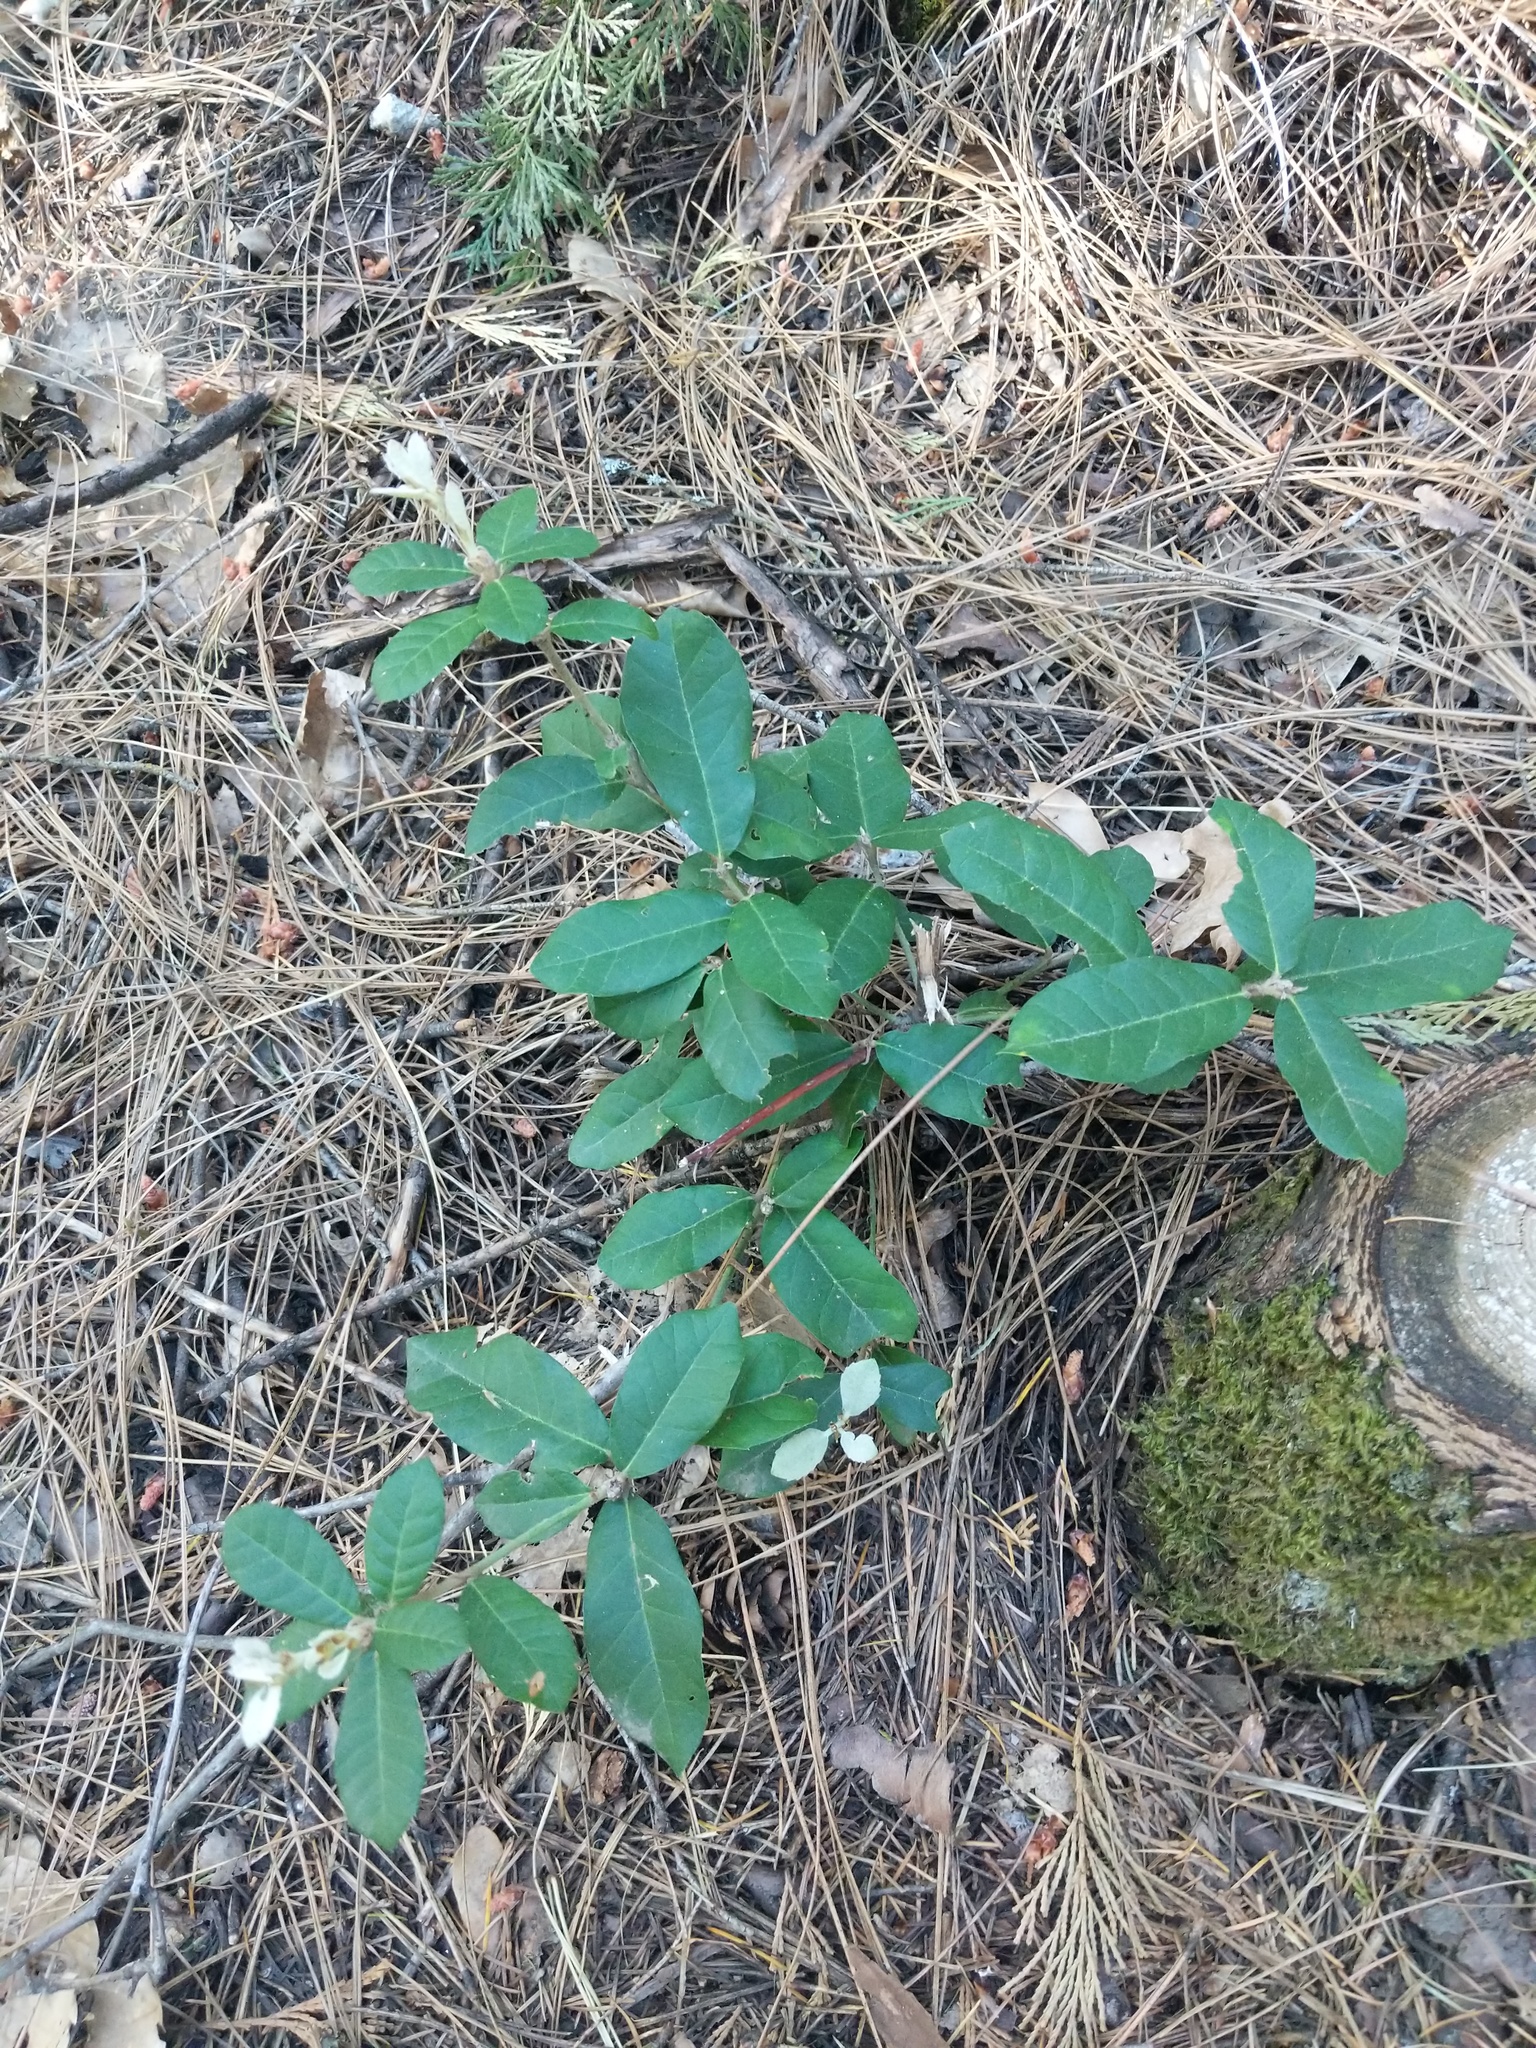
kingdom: Plantae
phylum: Tracheophyta
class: Magnoliopsida
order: Fagales
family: Fagaceae
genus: Notholithocarpus
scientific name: Notholithocarpus densiflorus
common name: Tan bark oak
